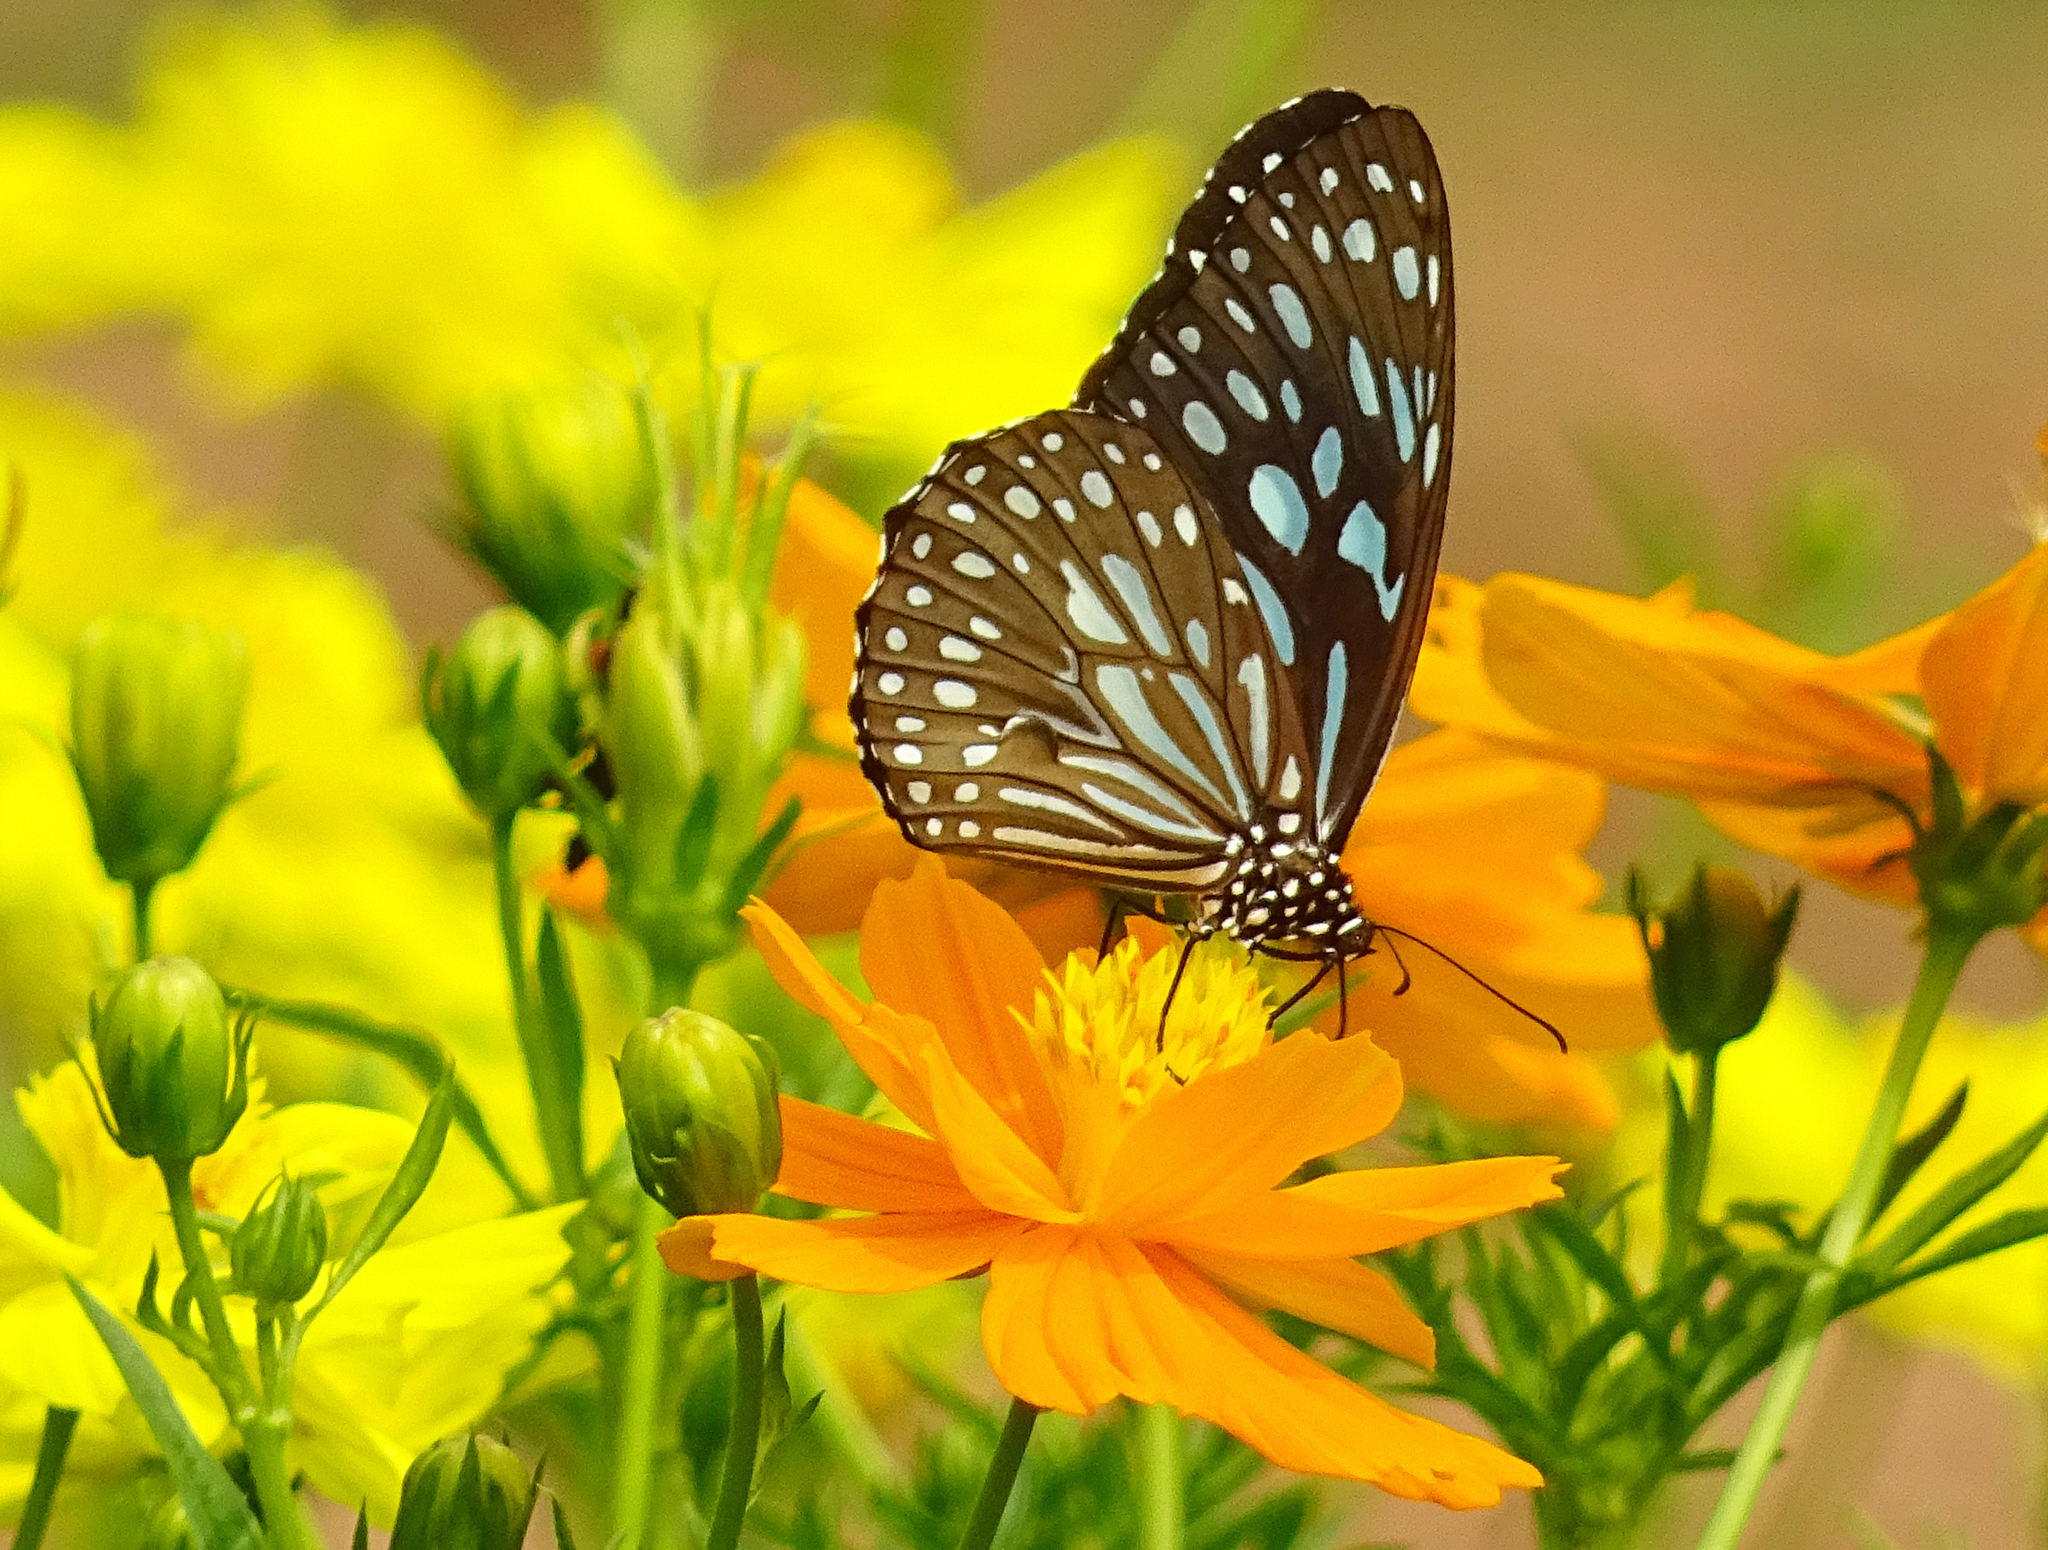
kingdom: Animalia
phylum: Arthropoda
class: Insecta
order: Lepidoptera
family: Nymphalidae
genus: Tirumala
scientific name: Tirumala septentrionis
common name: Dark blue tiger butterfly
